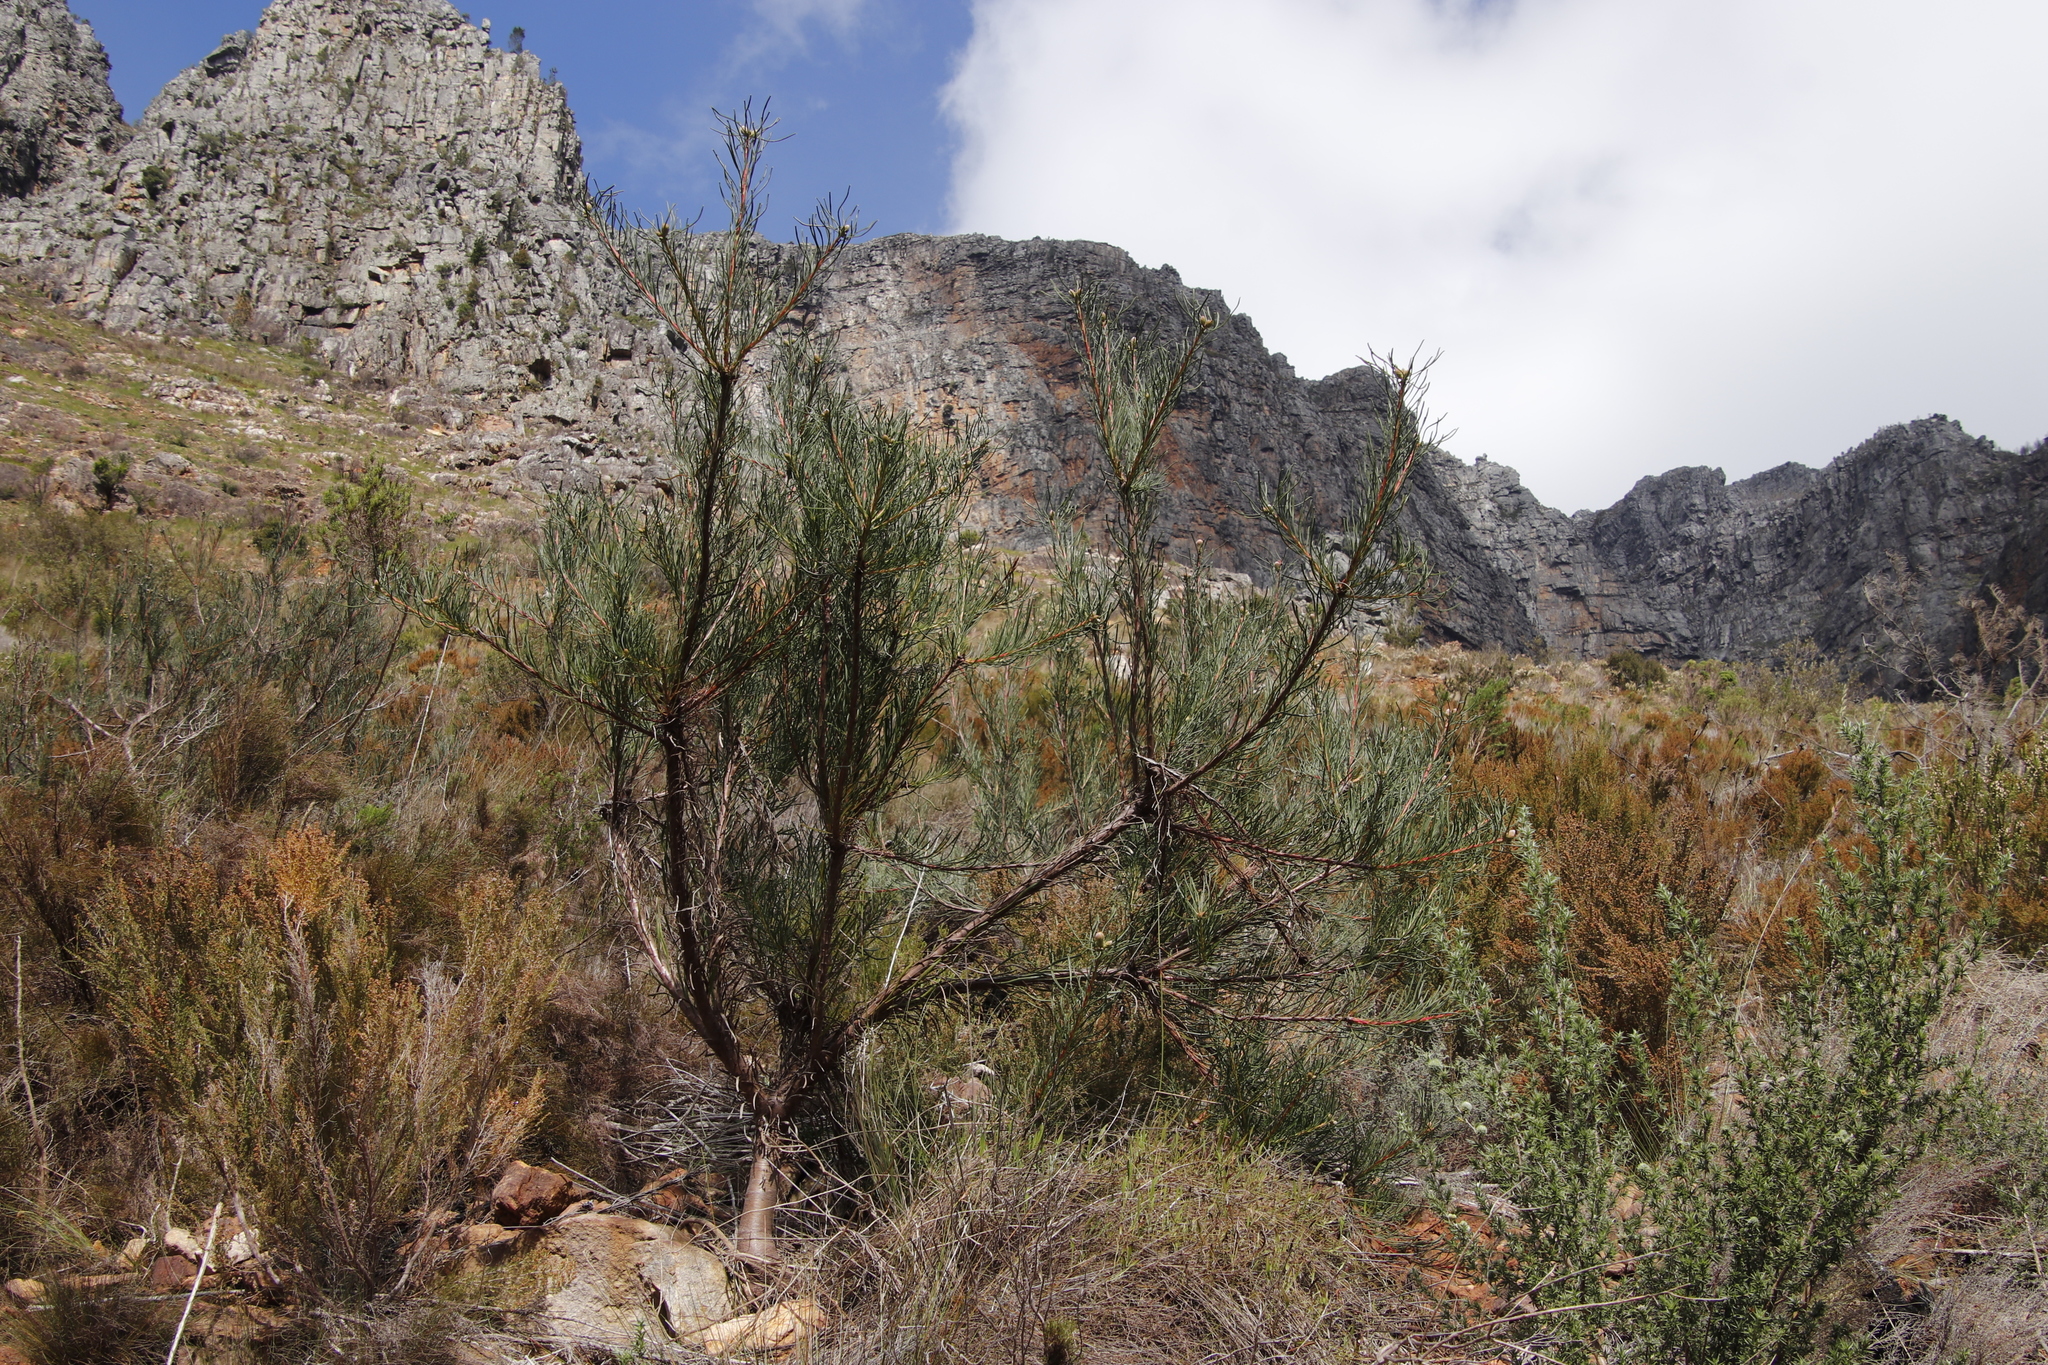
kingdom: Plantae
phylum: Tracheophyta
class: Magnoliopsida
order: Proteales
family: Proteaceae
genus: Leucospermum
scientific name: Leucospermum lineare
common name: Needle-leaf pincushion
